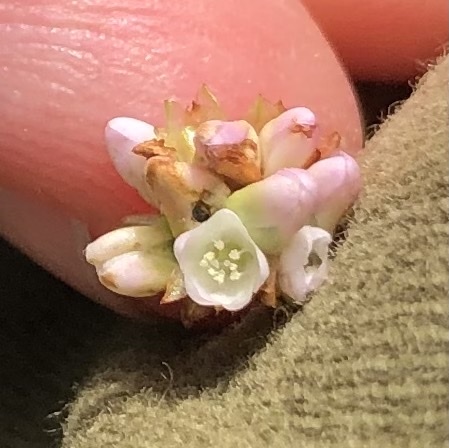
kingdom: Plantae
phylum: Tracheophyta
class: Magnoliopsida
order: Caryophyllales
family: Polygonaceae
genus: Persicaria
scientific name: Persicaria sagittata
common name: American tearthumb
